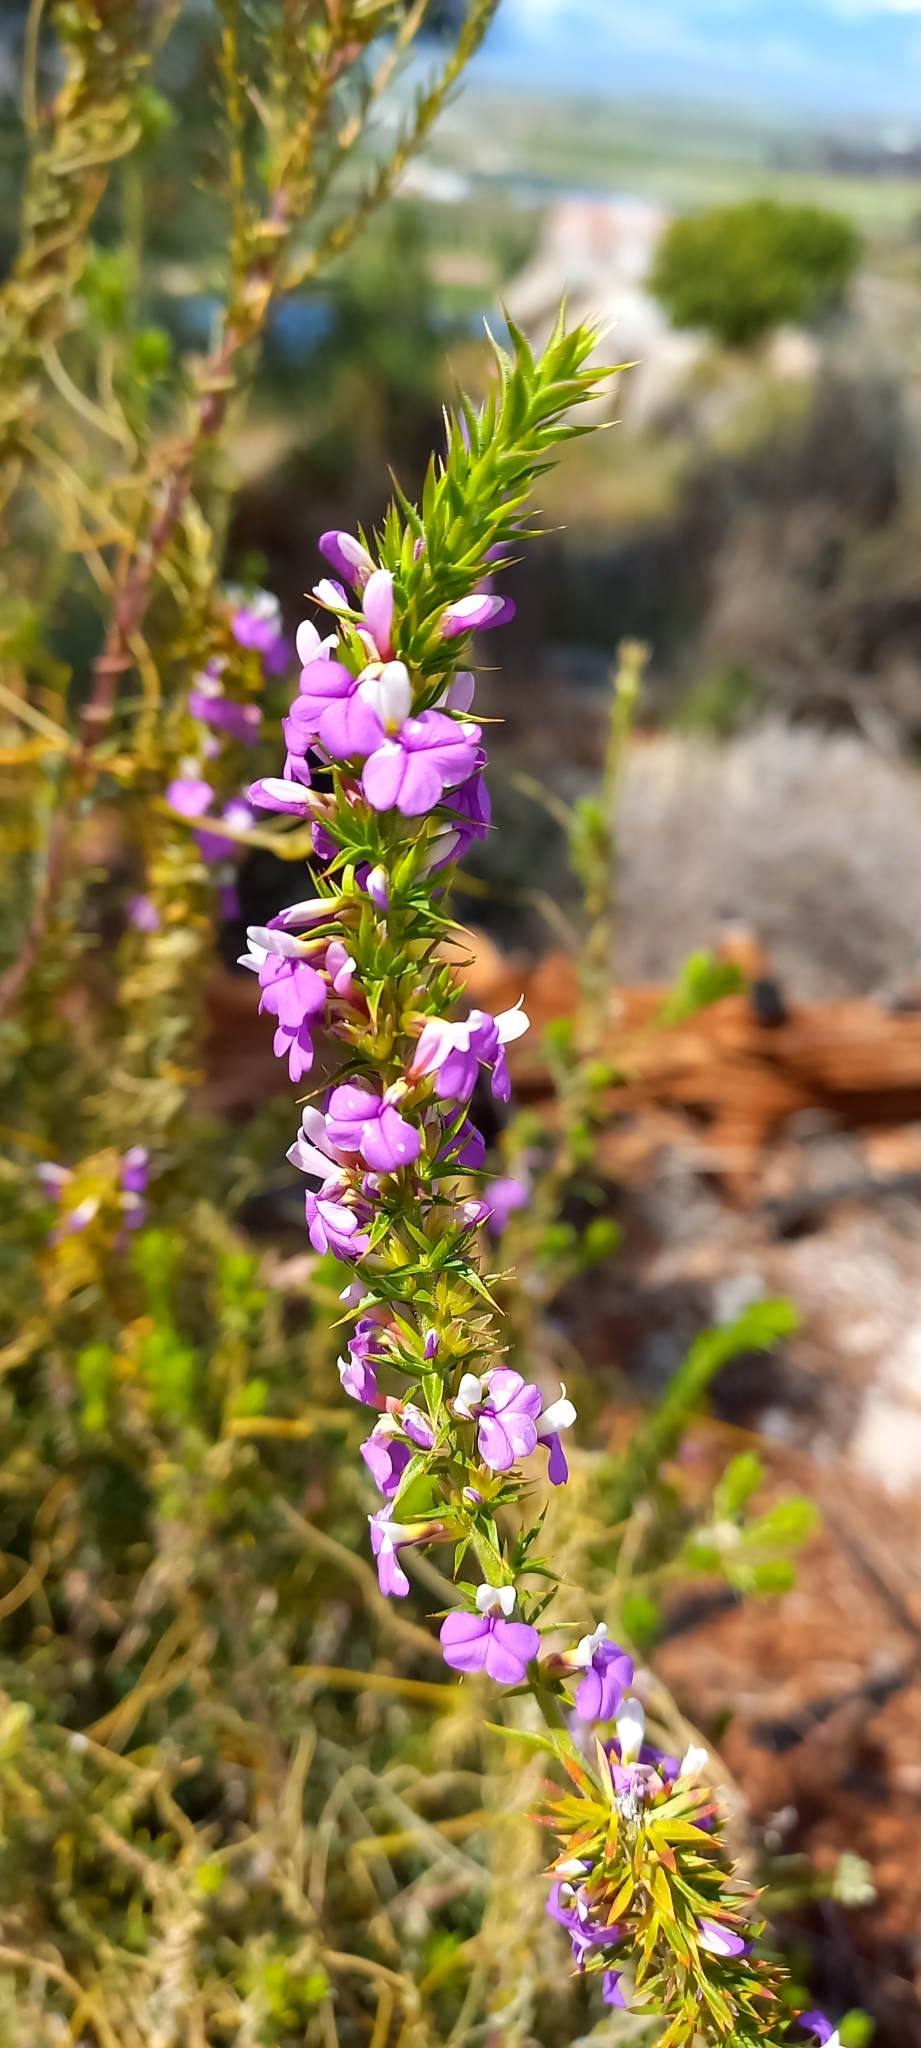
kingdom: Plantae
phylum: Tracheophyta
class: Magnoliopsida
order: Fabales
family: Polygalaceae
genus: Muraltia
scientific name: Muraltia heisteria
